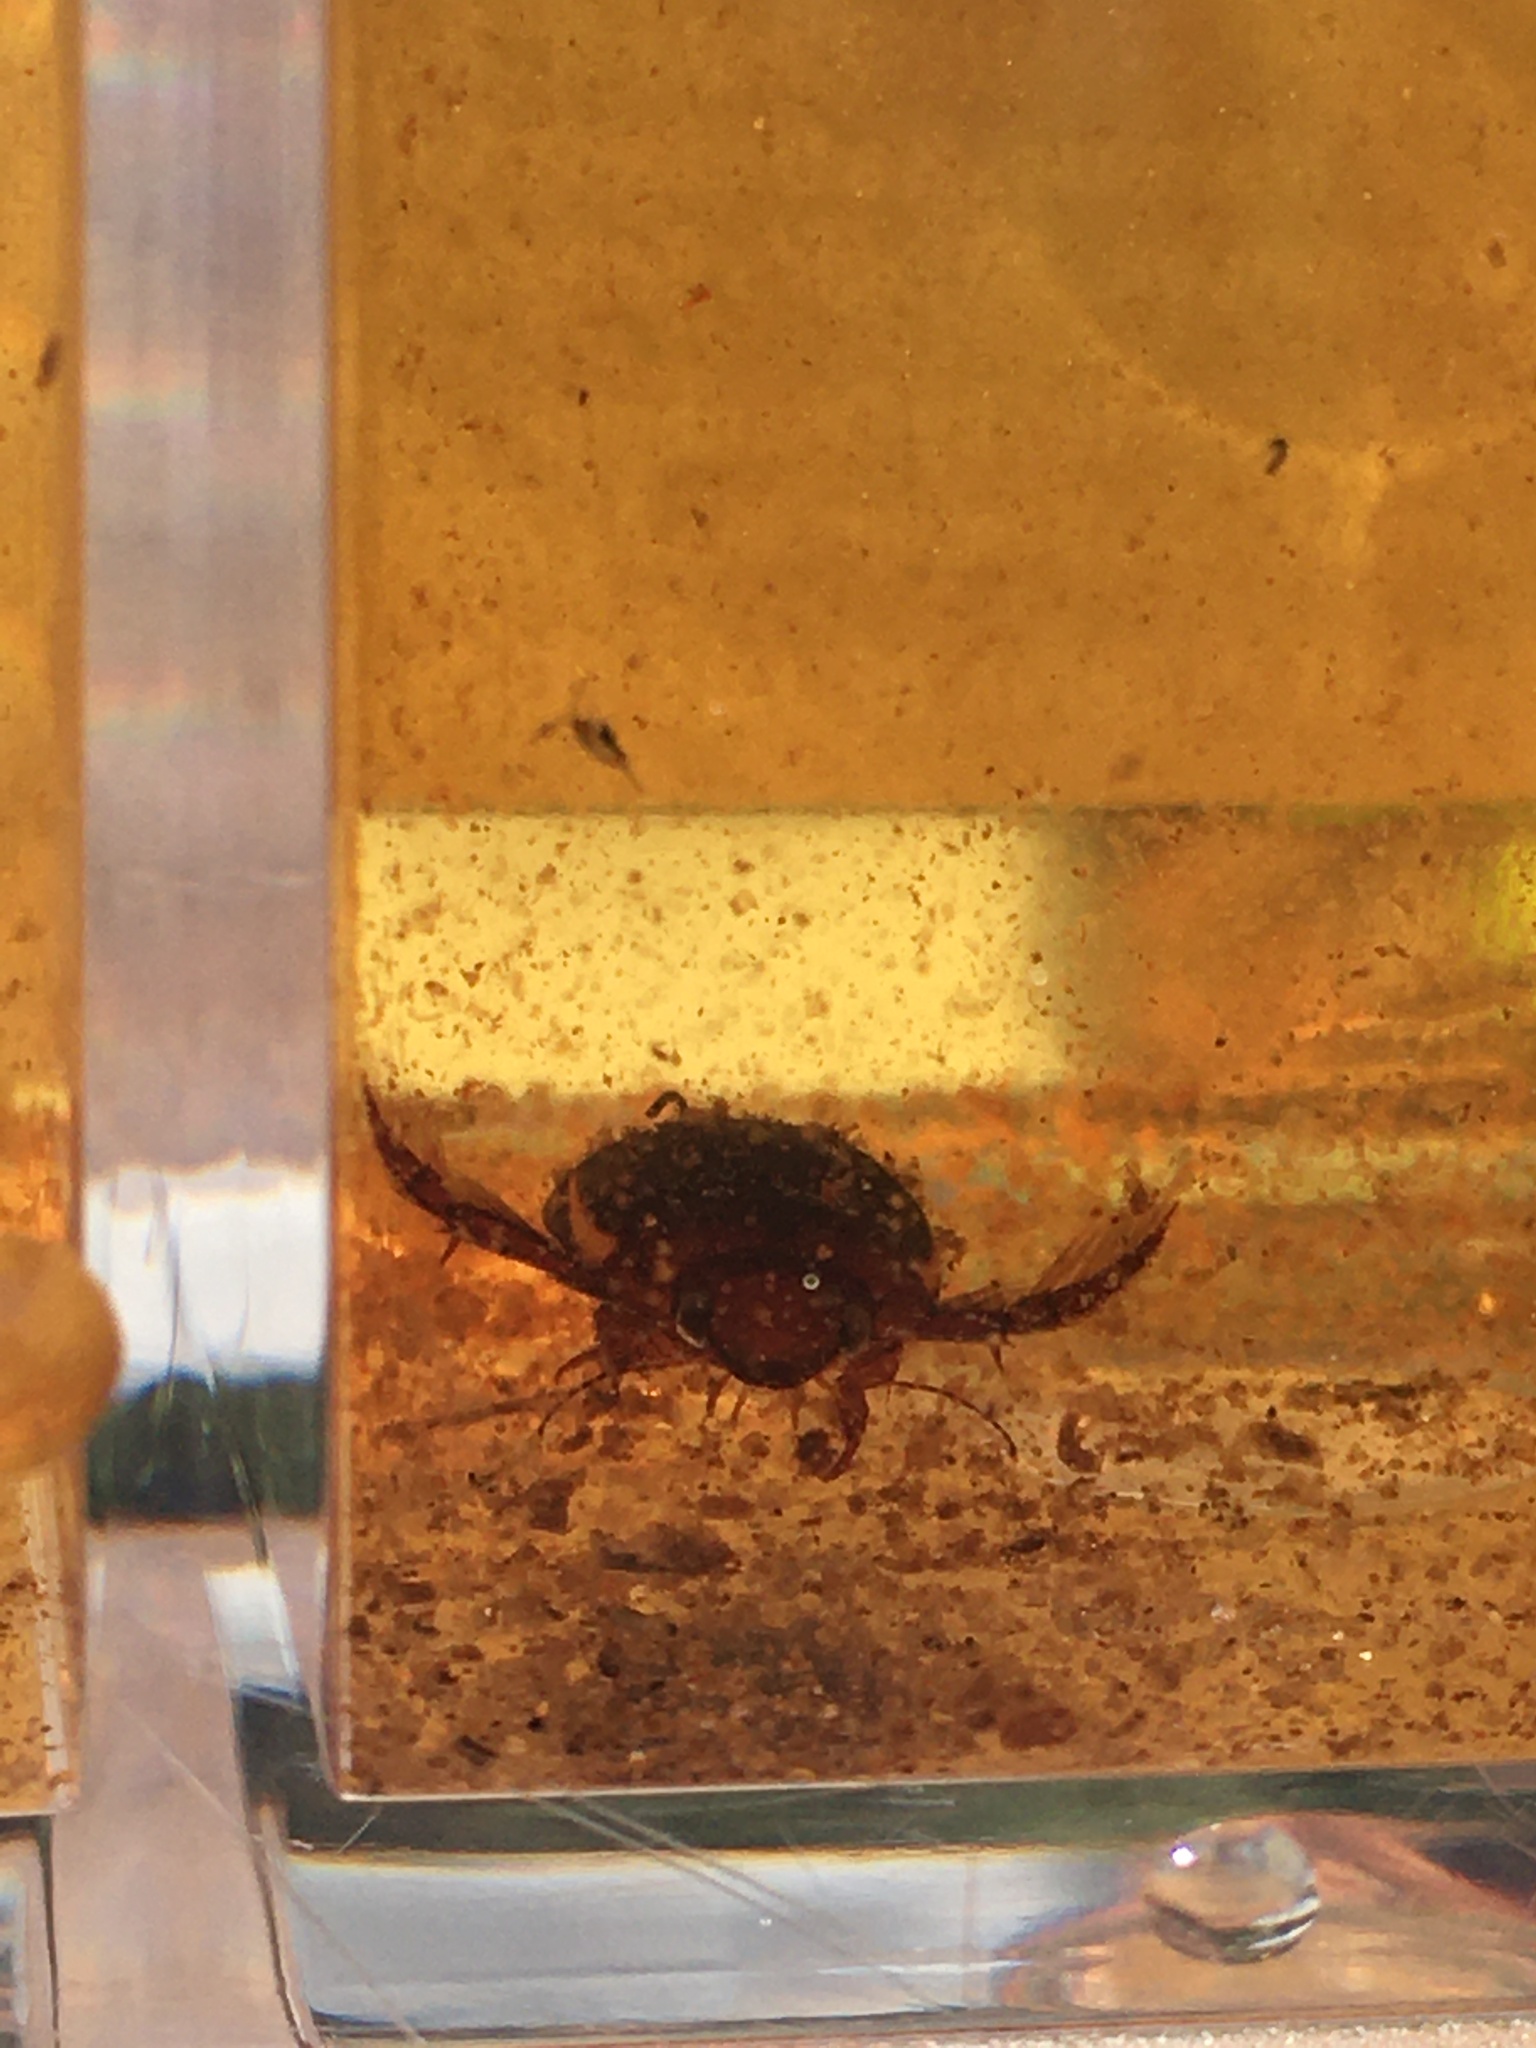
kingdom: Animalia
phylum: Arthropoda
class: Insecta
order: Coleoptera
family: Dytiscidae
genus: Hydaticus
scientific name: Hydaticus bimarginatus
